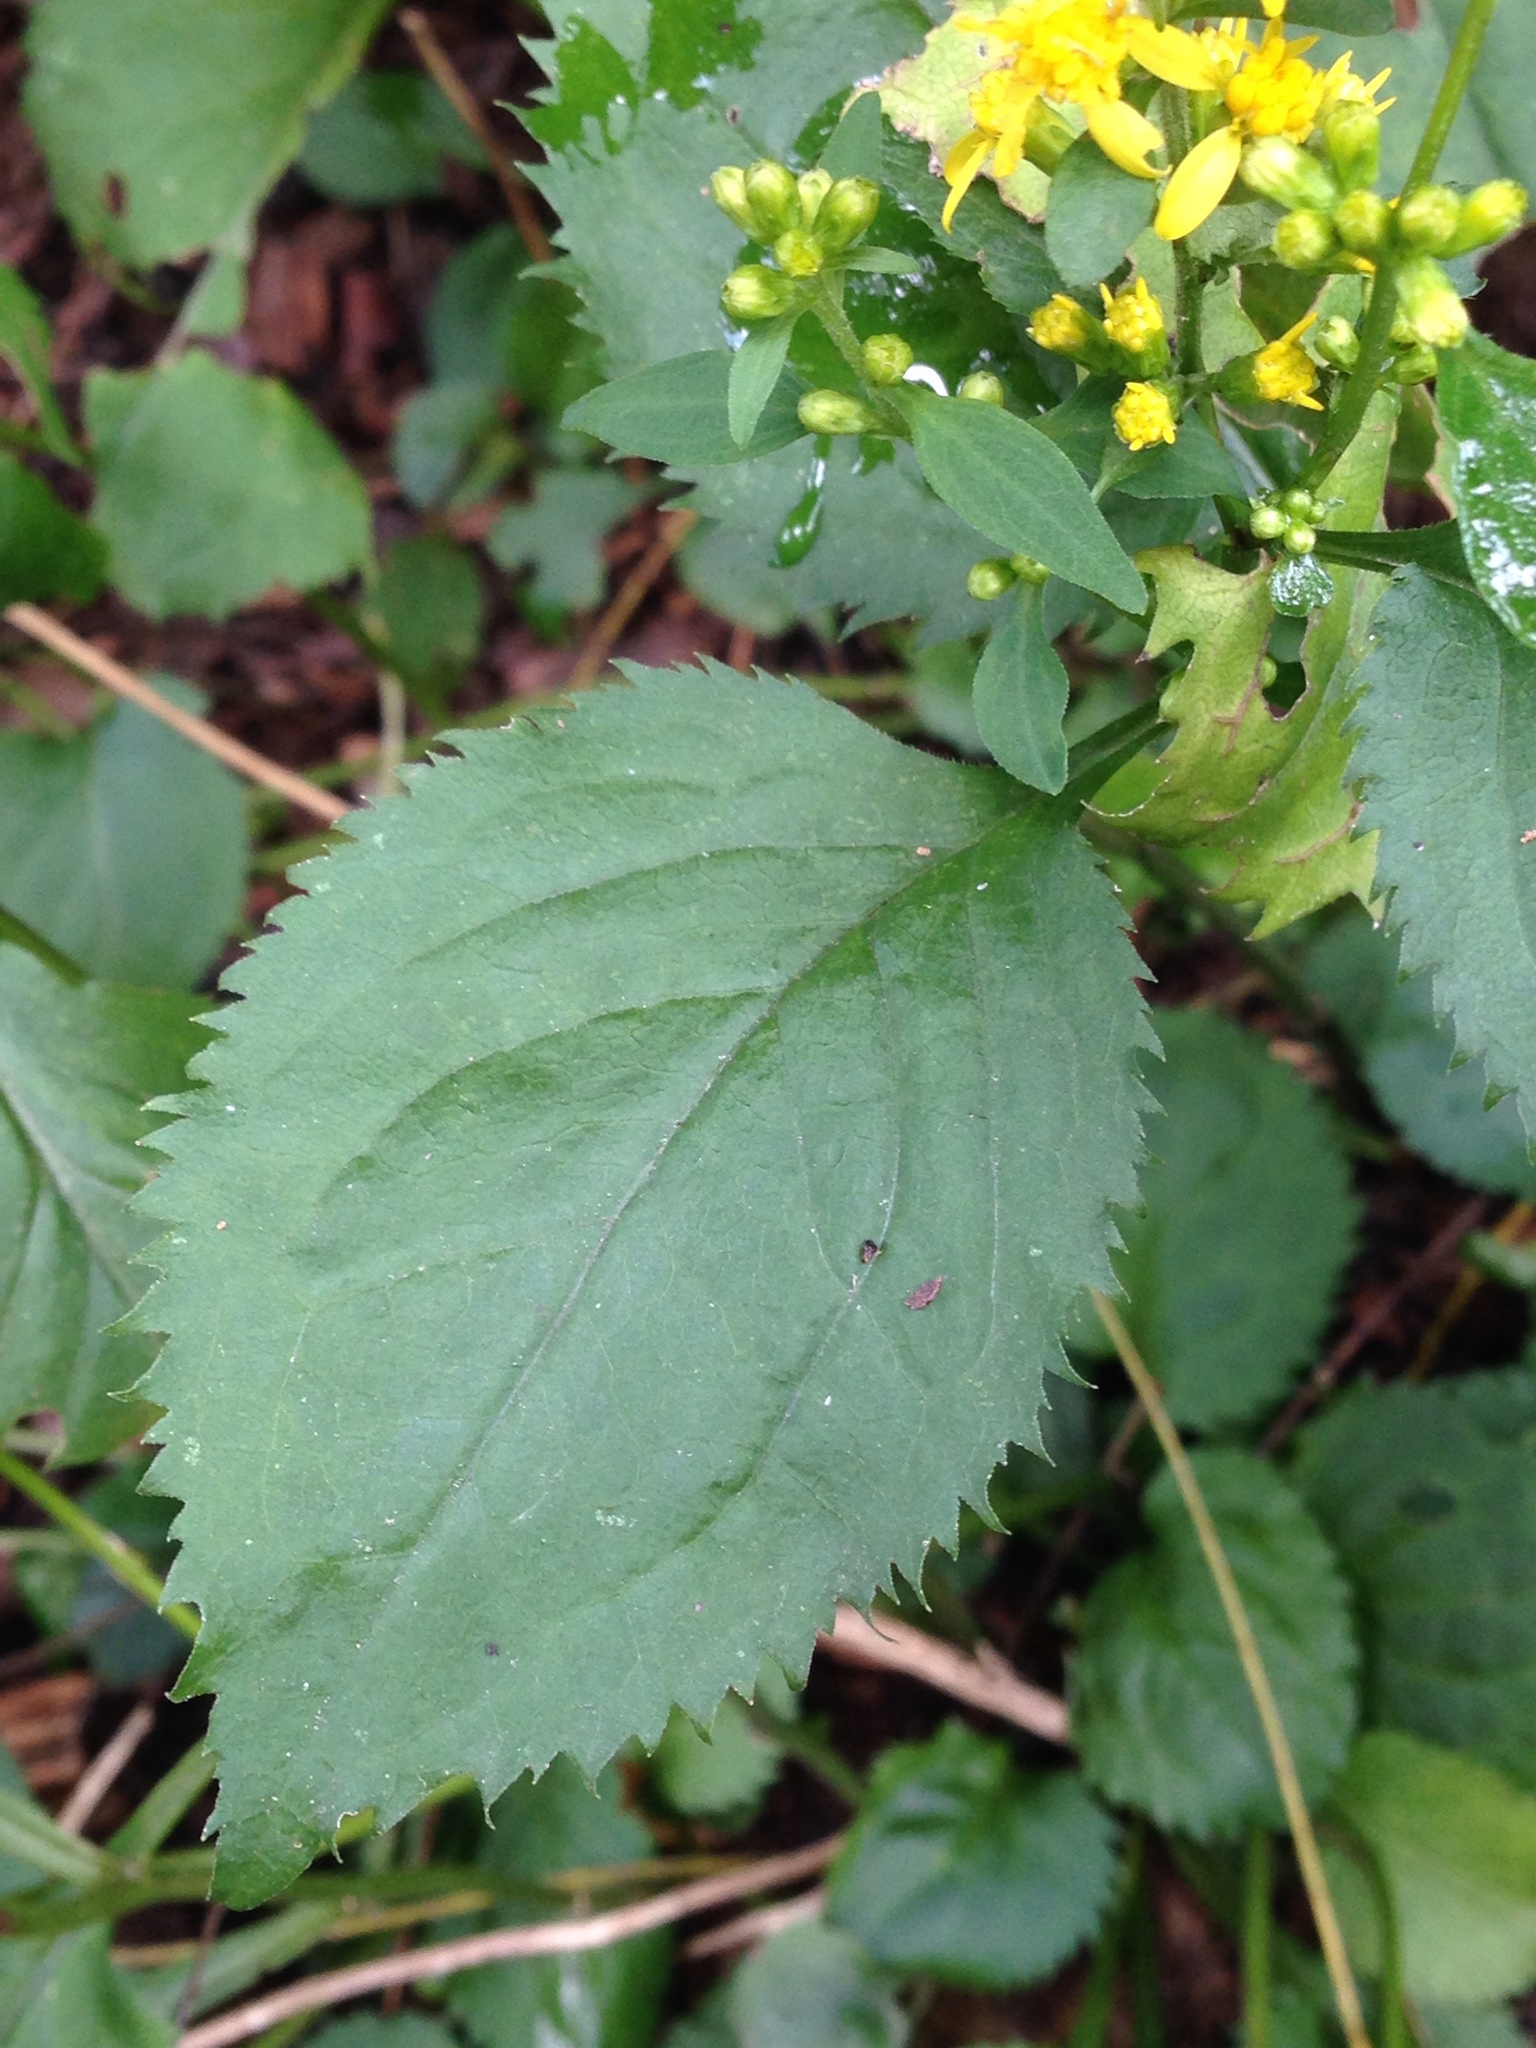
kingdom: Plantae
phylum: Tracheophyta
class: Magnoliopsida
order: Asterales
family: Asteraceae
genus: Solidago
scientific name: Solidago flexicaulis
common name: Zig-zag goldenrod
